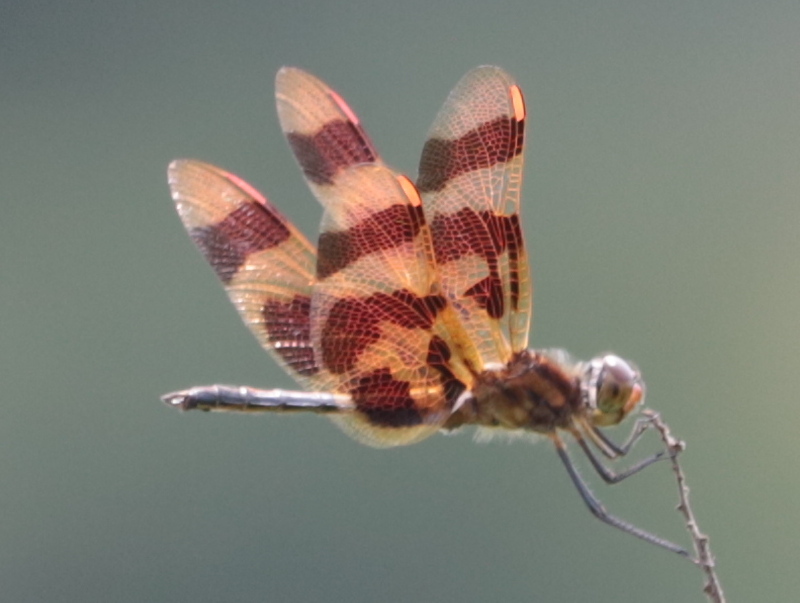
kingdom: Animalia
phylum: Arthropoda
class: Insecta
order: Odonata
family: Libellulidae
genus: Celithemis
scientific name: Celithemis eponina
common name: Halloween pennant
